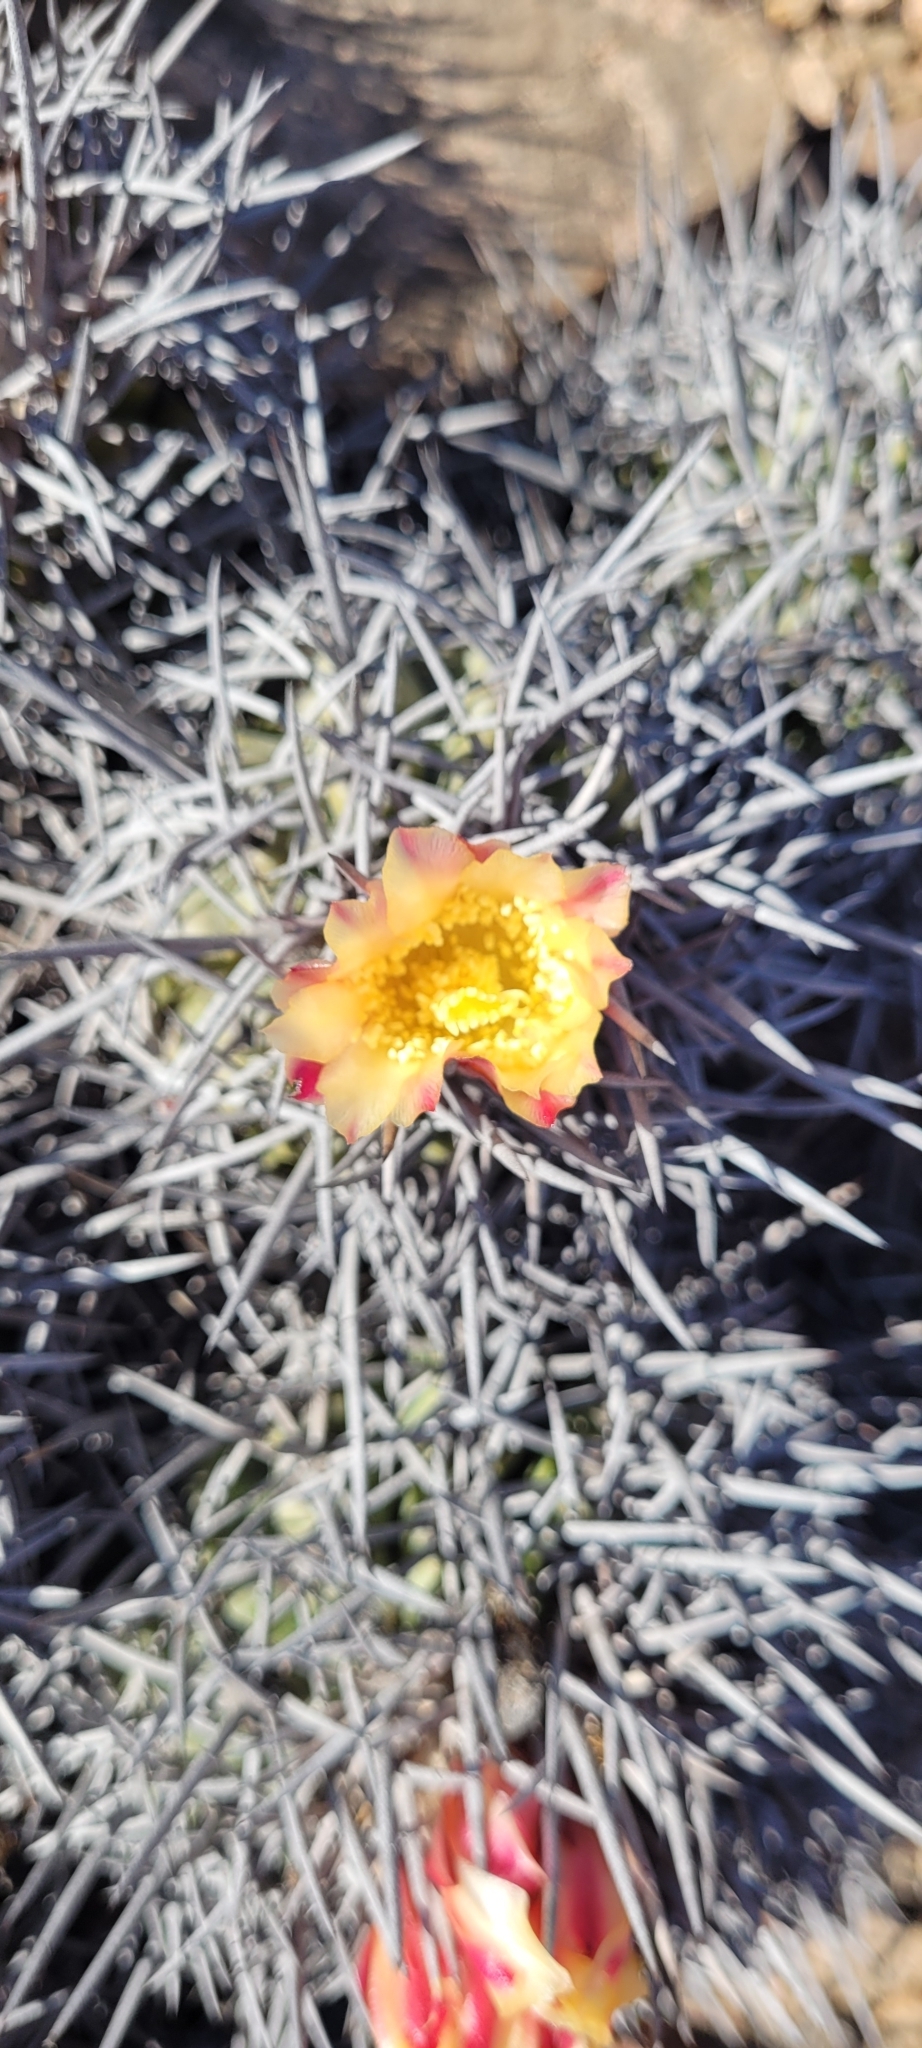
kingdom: Plantae
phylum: Tracheophyta
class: Magnoliopsida
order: Caryophyllales
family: Cactaceae
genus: Copiapoa
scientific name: Copiapoa coquimbana
